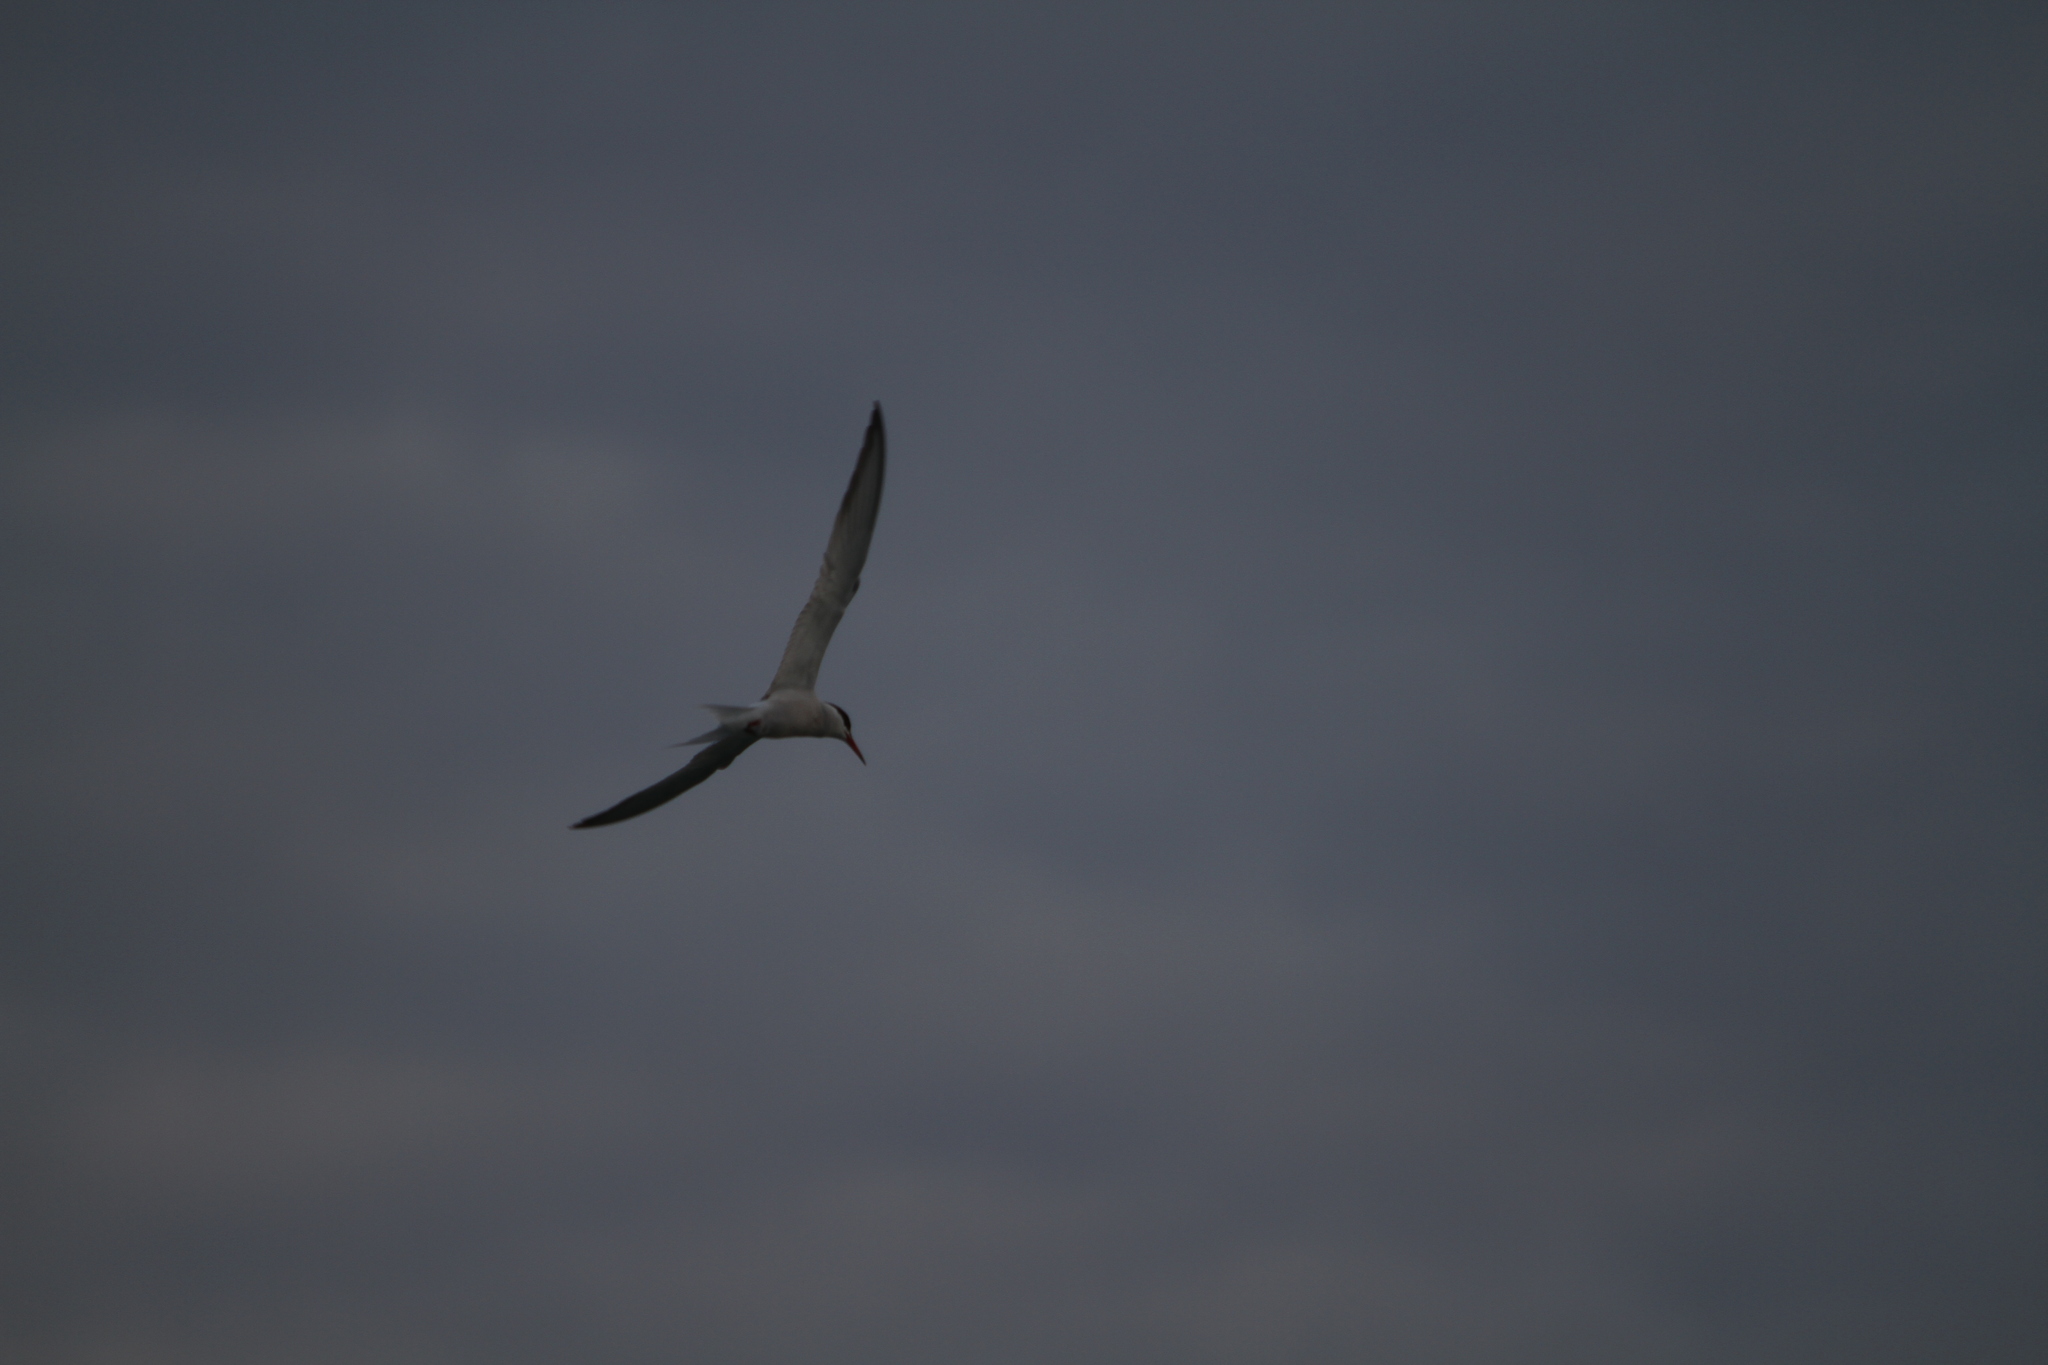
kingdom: Animalia
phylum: Chordata
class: Aves
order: Charadriiformes
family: Laridae
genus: Sterna
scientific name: Sterna hirundo
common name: Common tern
